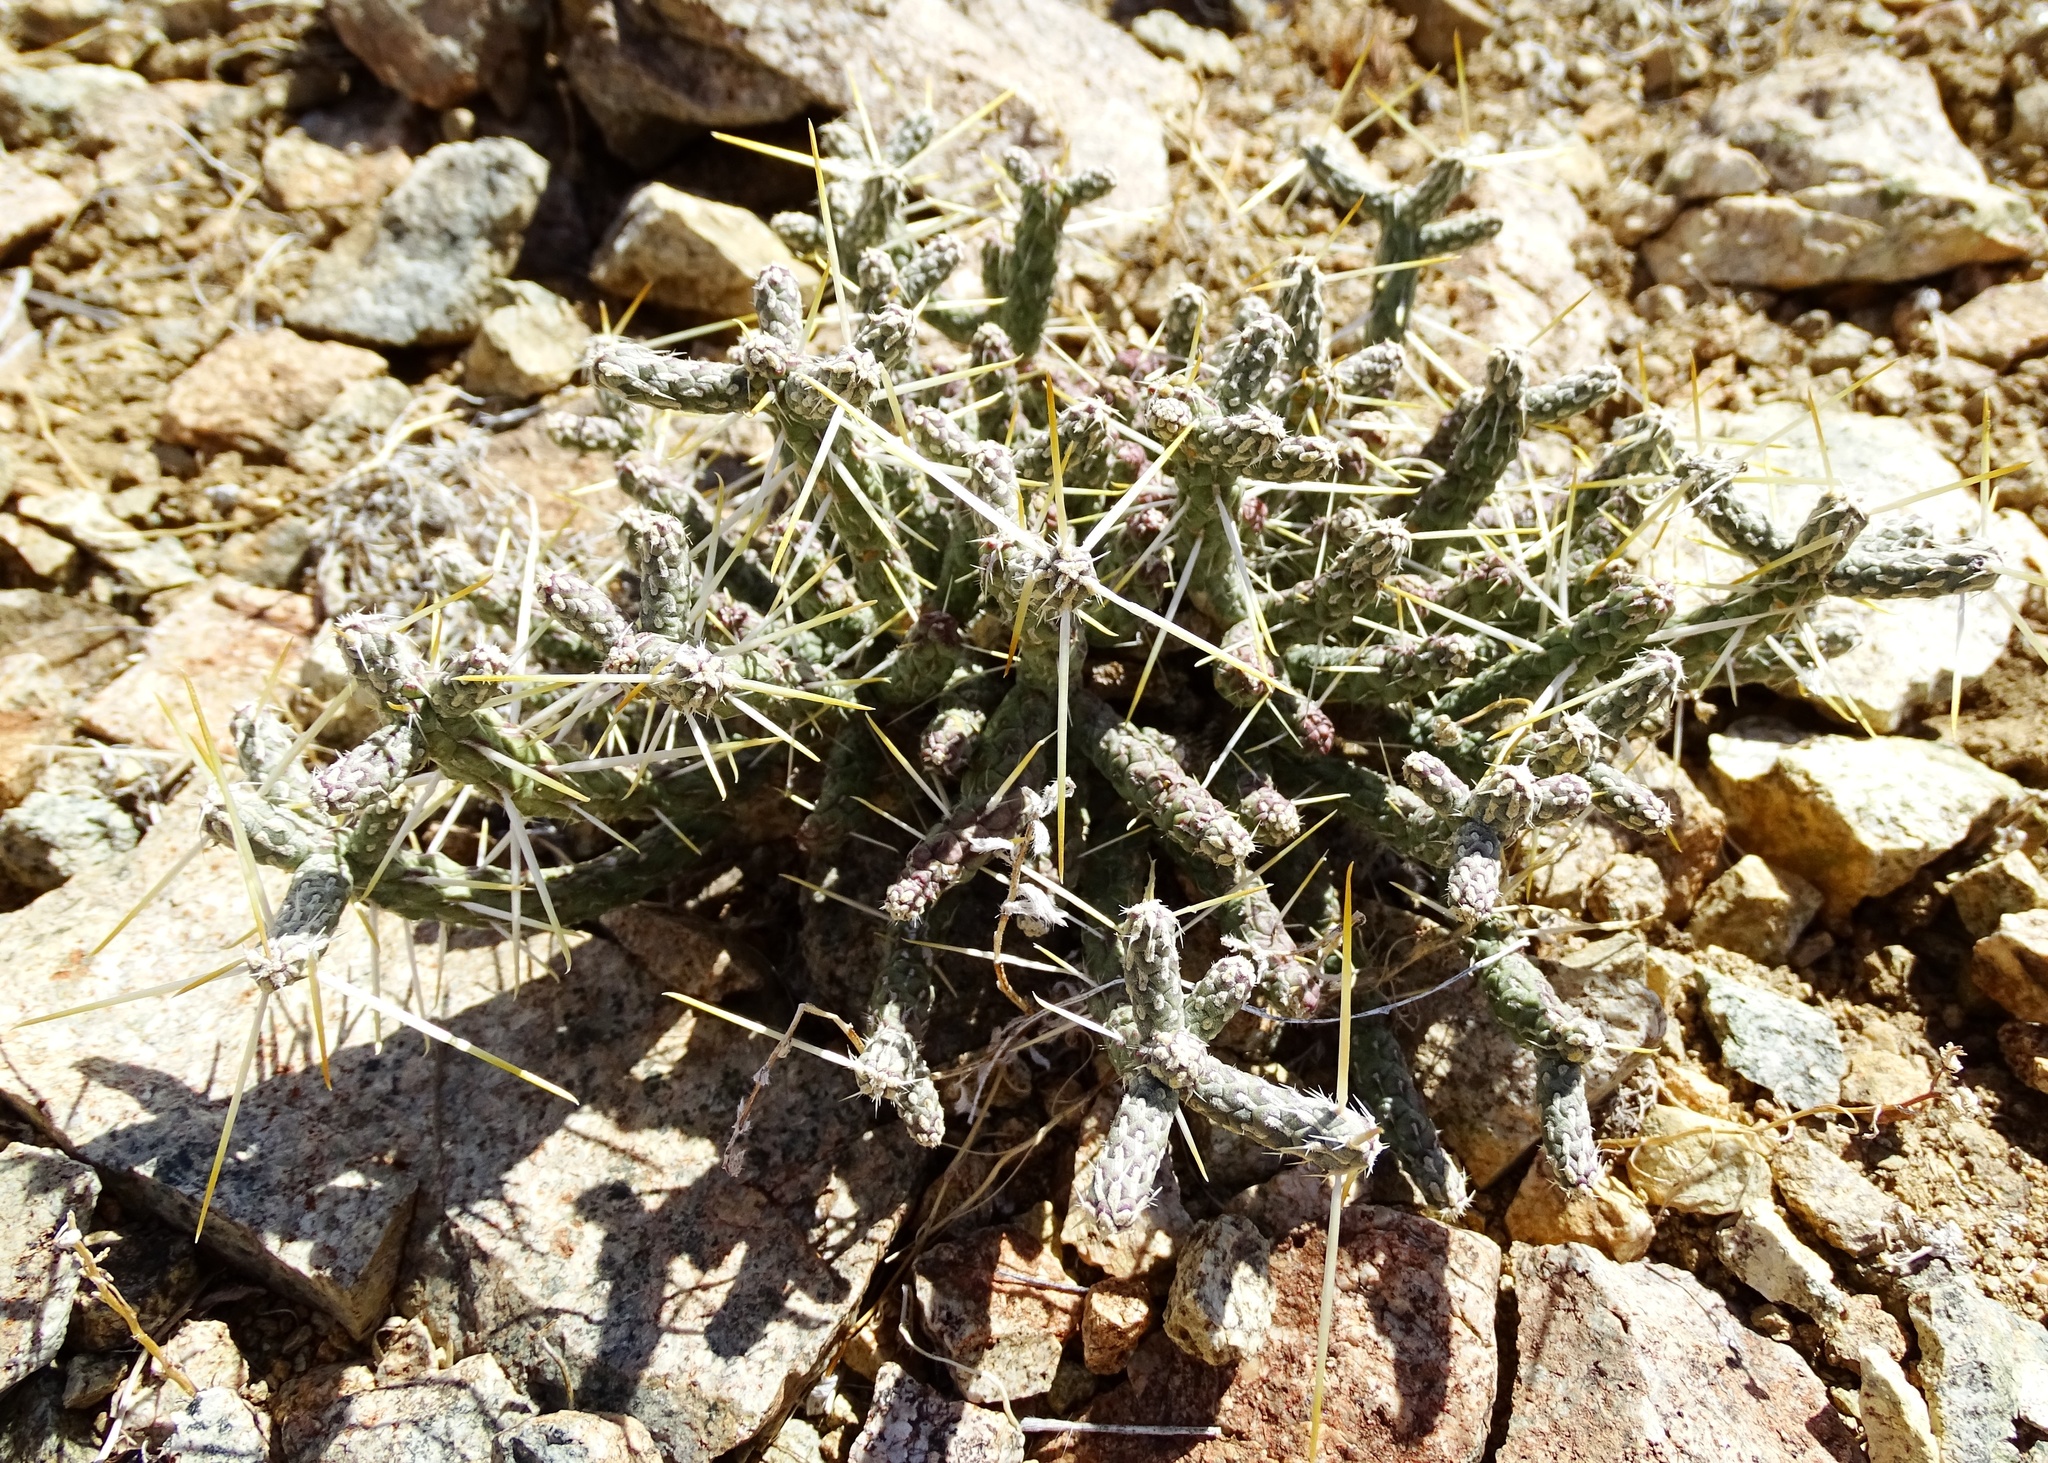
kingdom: Plantae
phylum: Tracheophyta
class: Magnoliopsida
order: Caryophyllales
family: Cactaceae
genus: Cylindropuntia
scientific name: Cylindropuntia ramosissima
